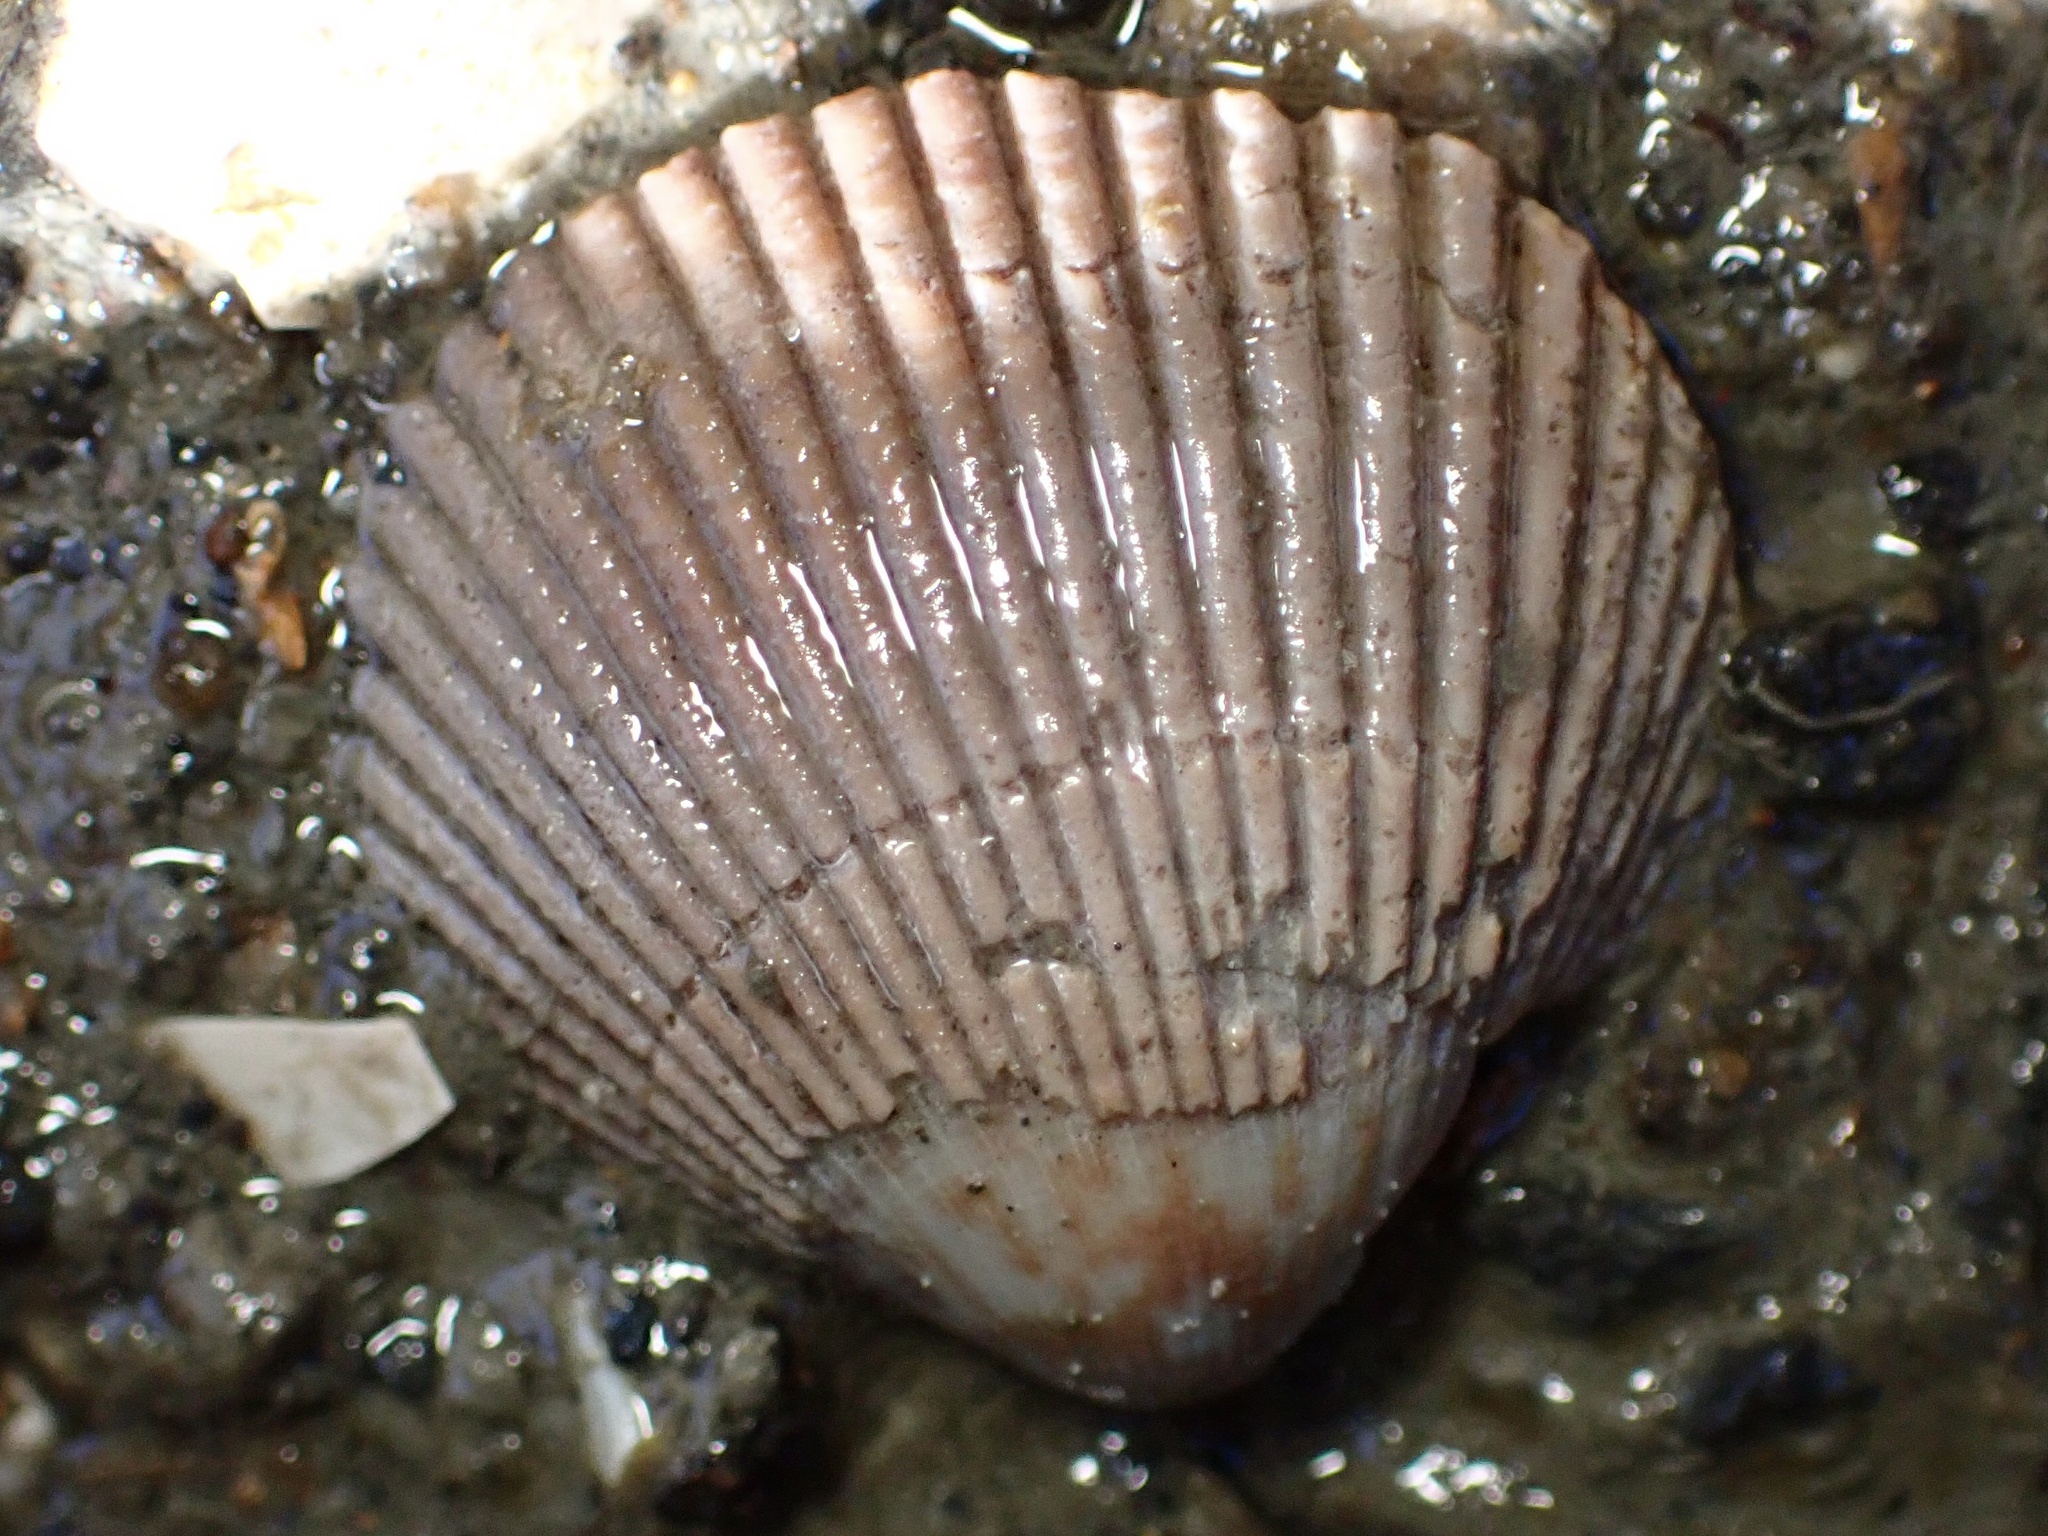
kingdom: Animalia
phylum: Mollusca
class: Bivalvia
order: Cardiida
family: Cardiidae
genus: Clinocardium
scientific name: Clinocardium nuttallii
